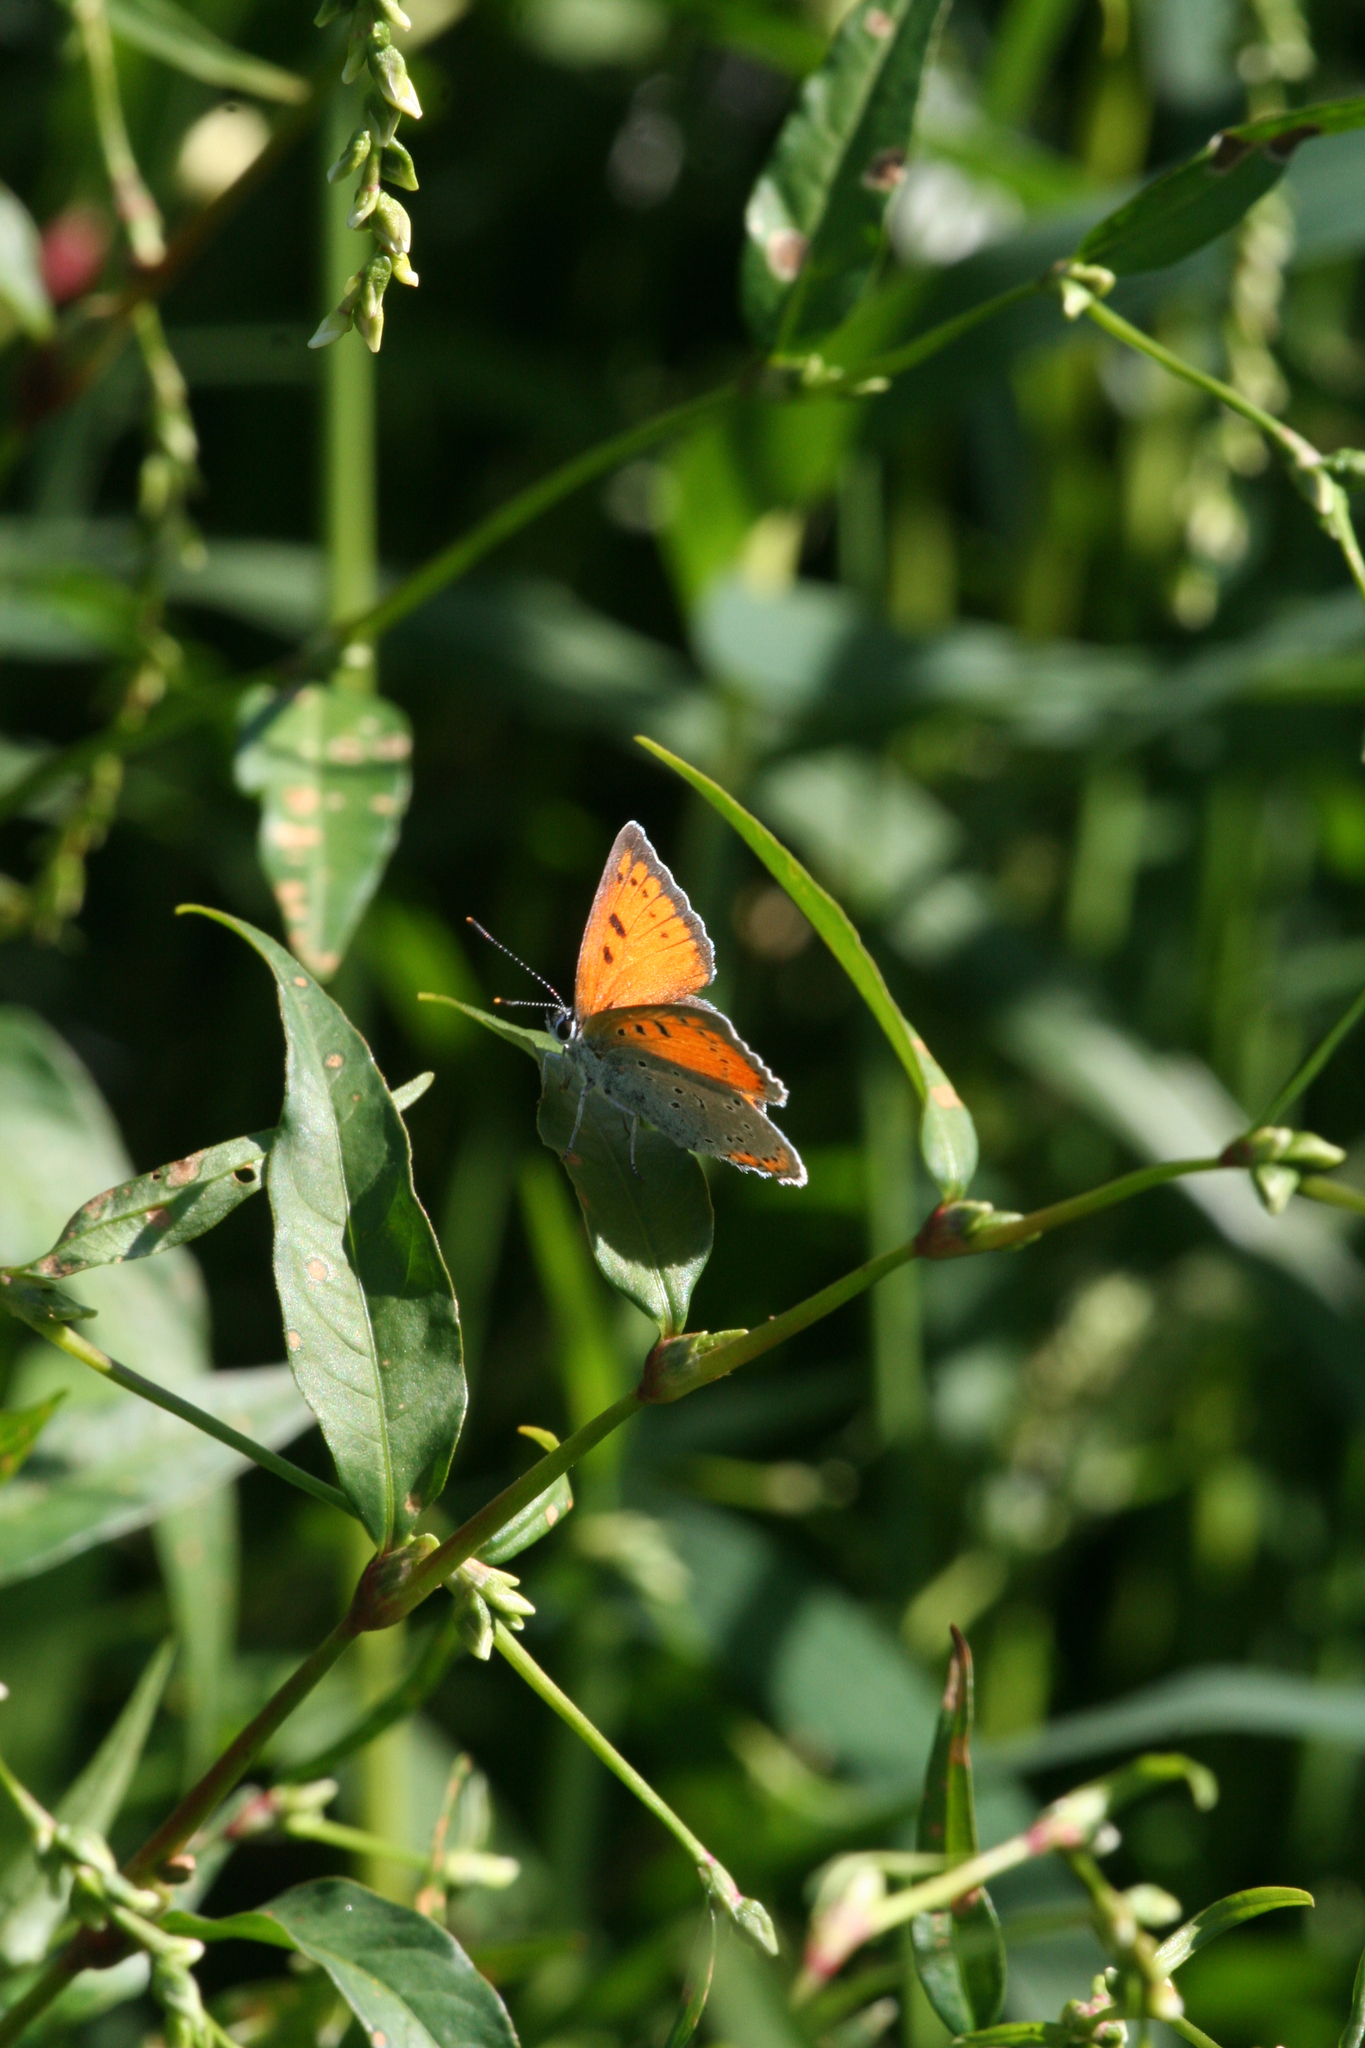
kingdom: Plantae
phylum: Tracheophyta
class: Magnoliopsida
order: Caryophyllales
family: Polygonaceae
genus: Persicaria
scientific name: Persicaria hydropiper
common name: Water-pepper
